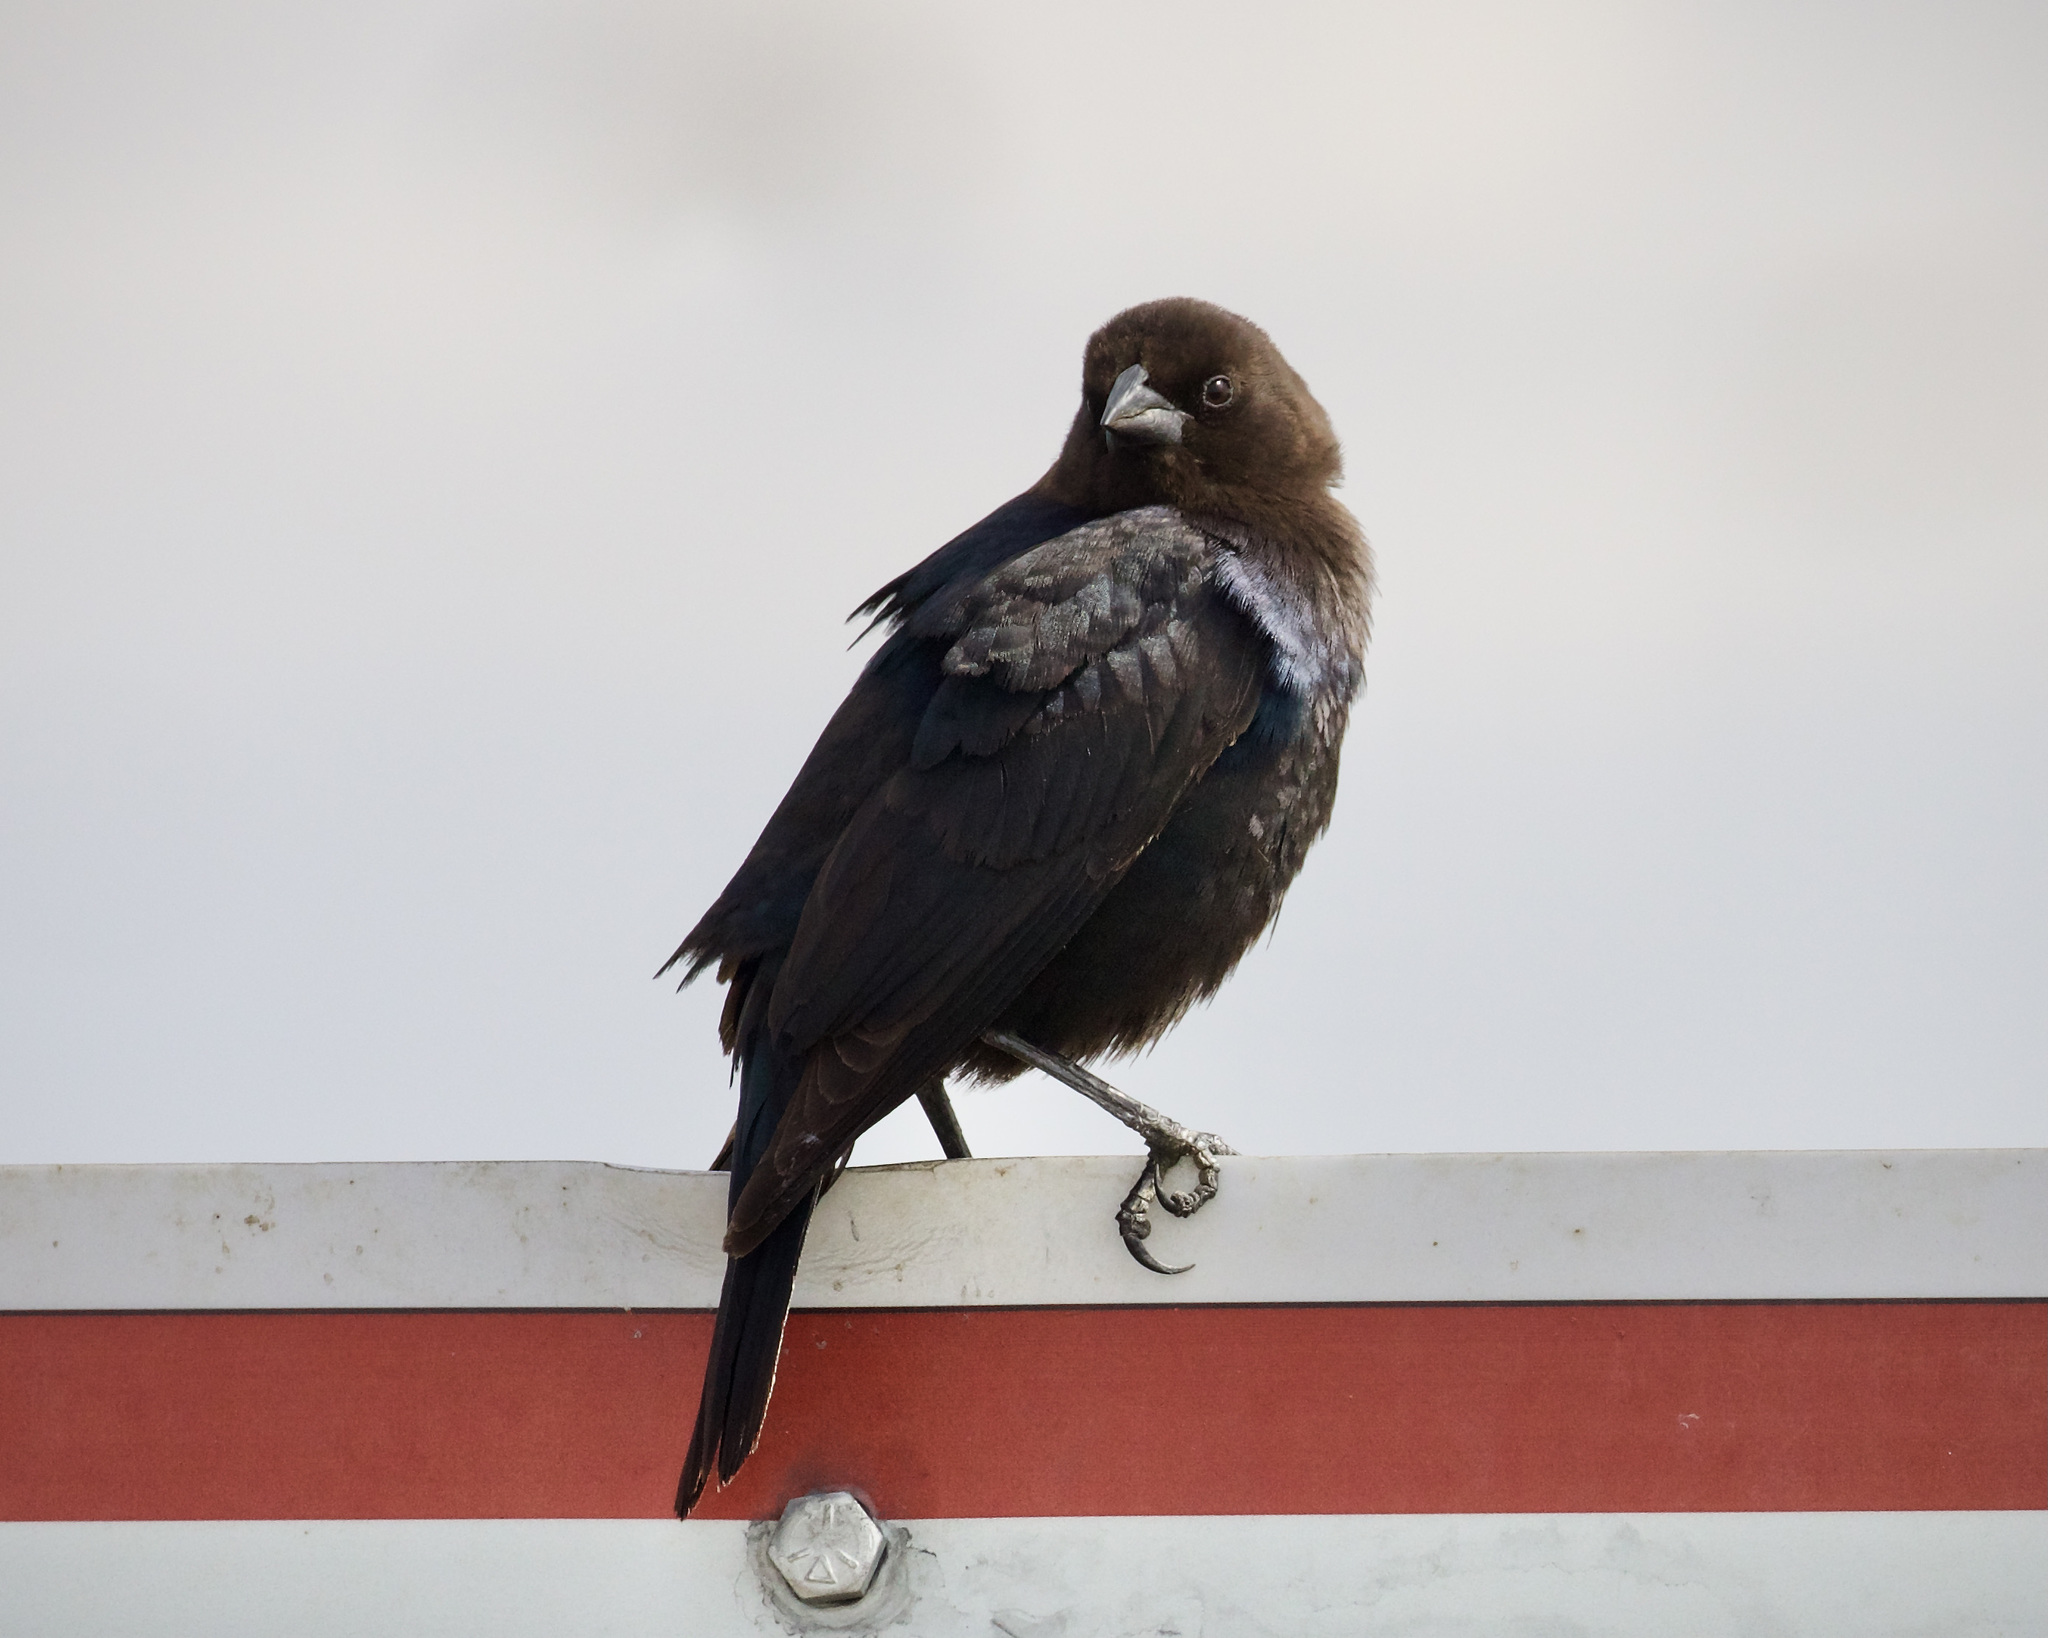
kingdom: Animalia
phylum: Chordata
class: Aves
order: Passeriformes
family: Icteridae
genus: Molothrus
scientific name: Molothrus ater
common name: Brown-headed cowbird
